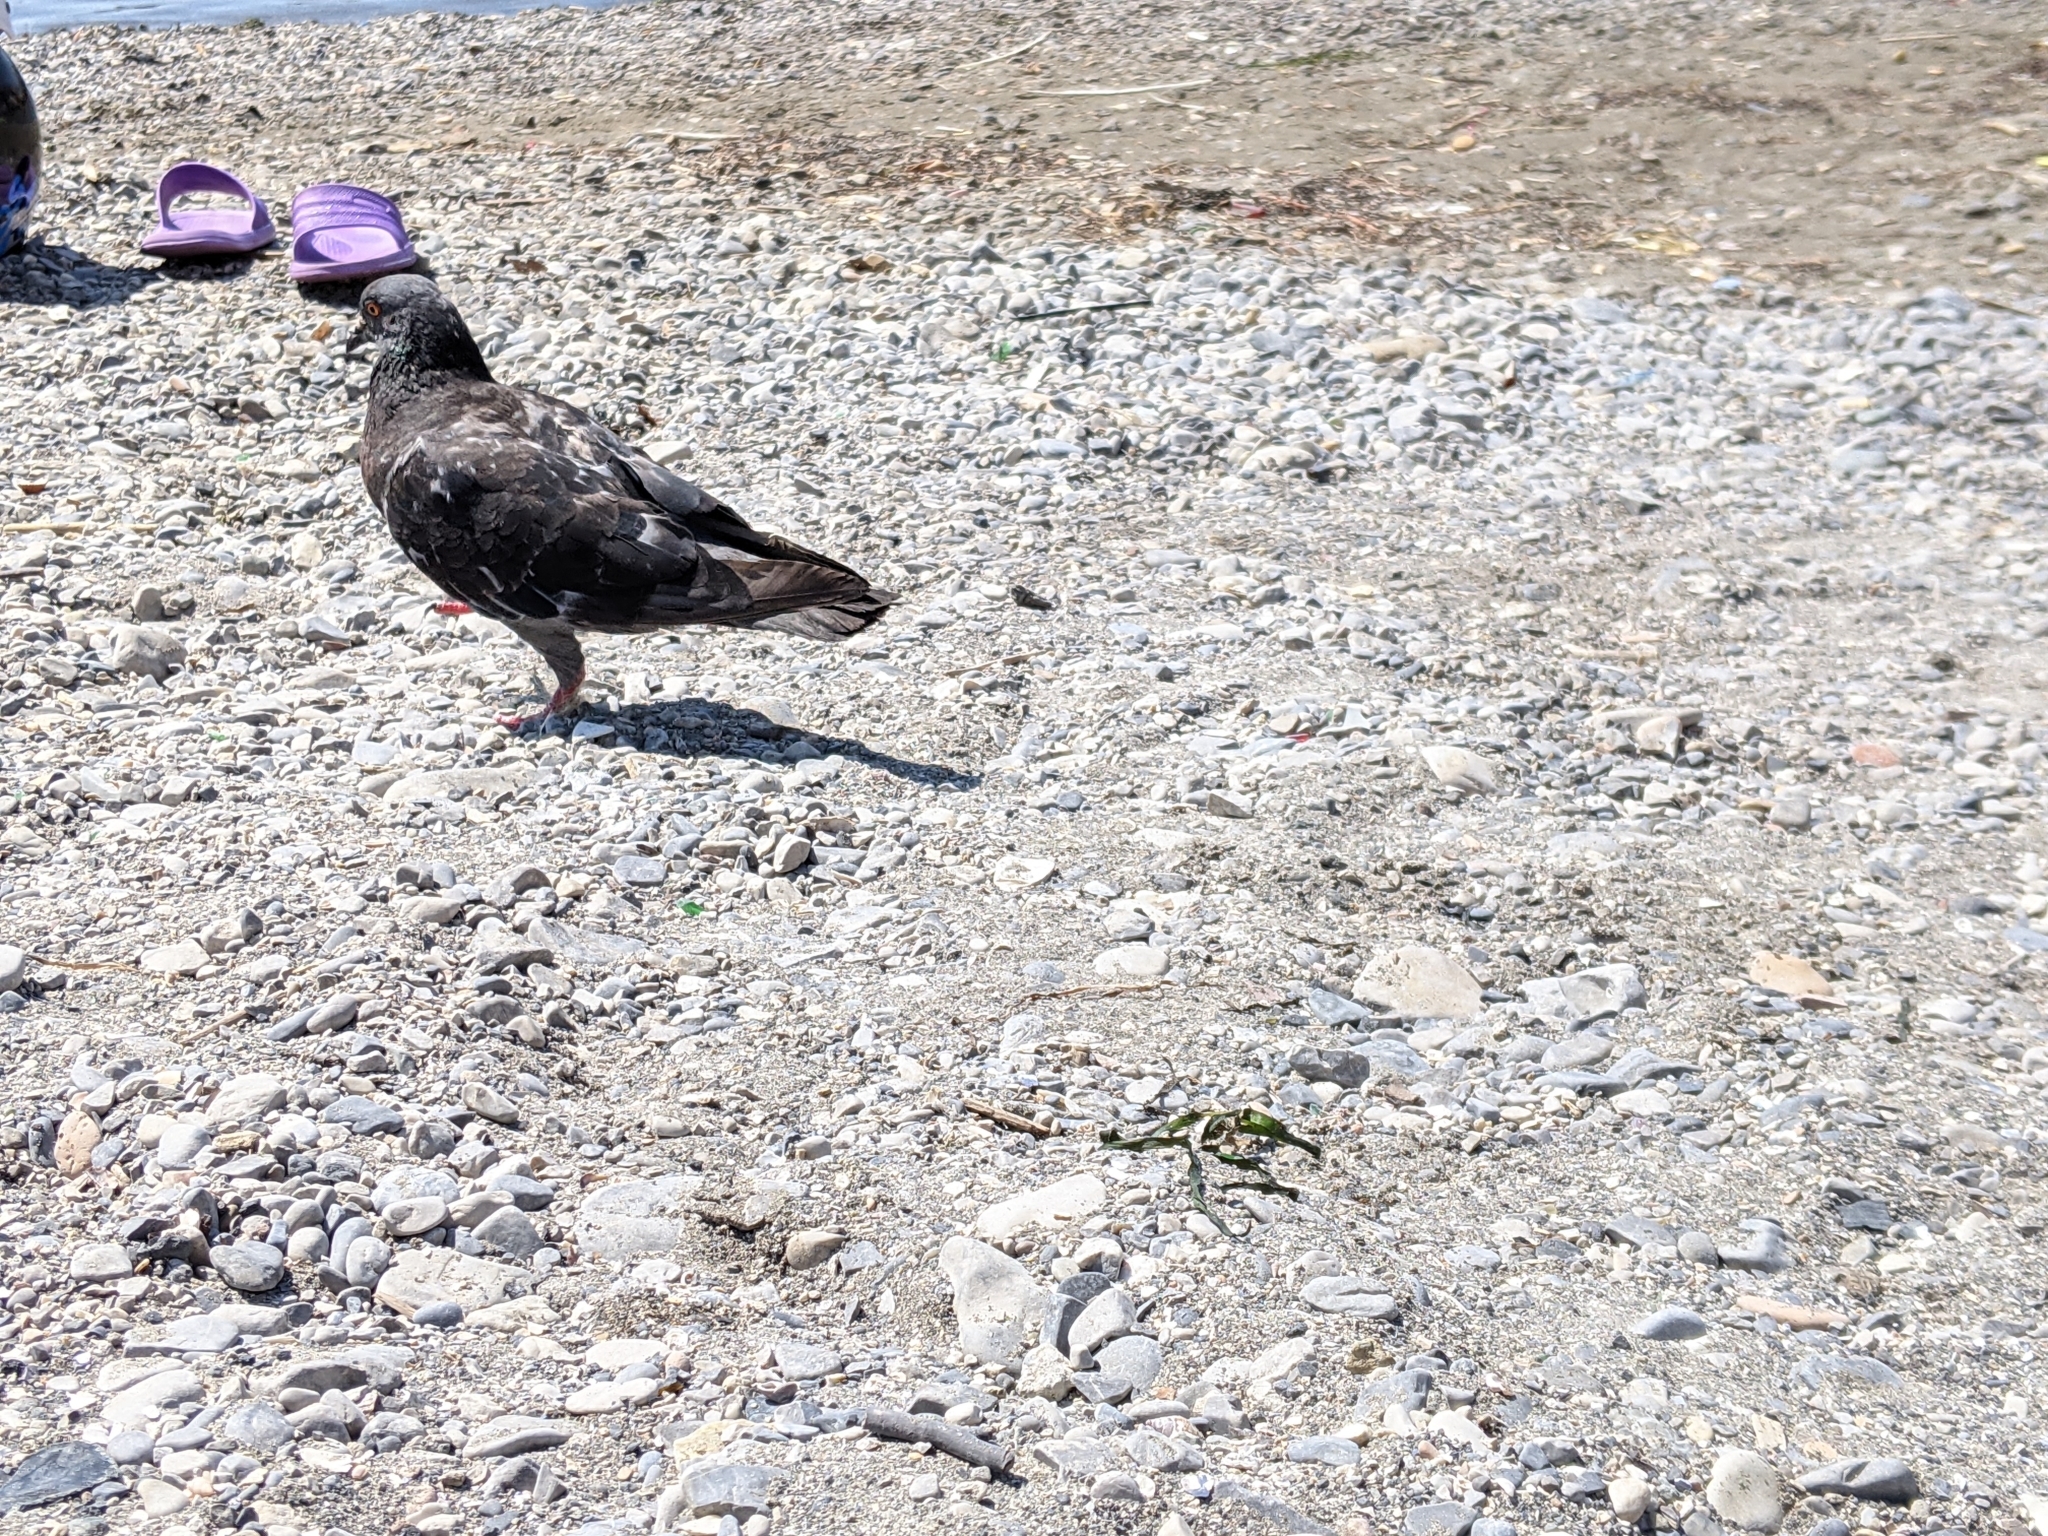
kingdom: Animalia
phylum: Chordata
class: Aves
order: Columbiformes
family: Columbidae
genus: Columba
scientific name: Columba livia
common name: Rock pigeon
